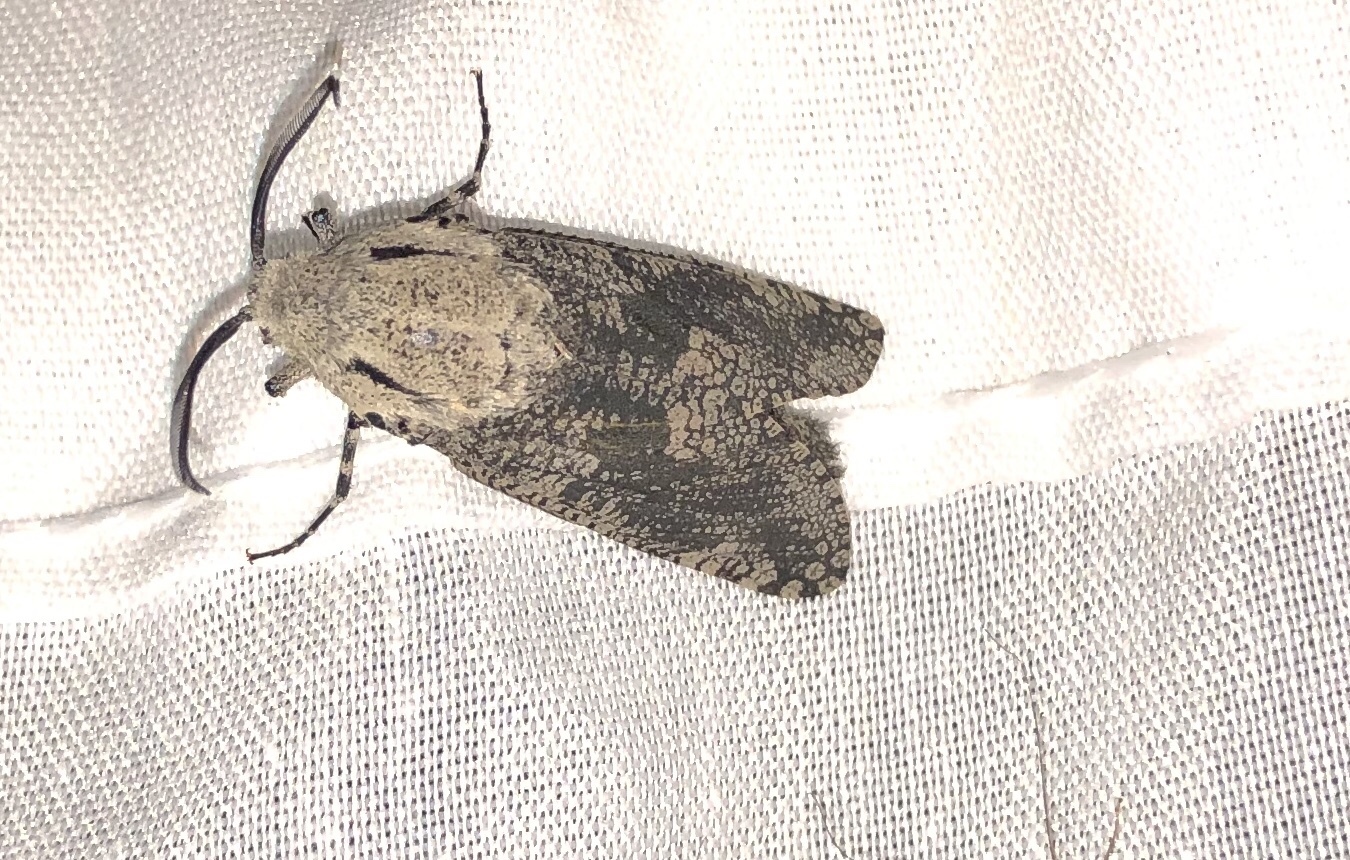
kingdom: Animalia
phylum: Arthropoda
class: Insecta
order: Lepidoptera
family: Cossidae
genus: Prionoxystus
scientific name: Prionoxystus robiniae
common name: Carpenterworm
